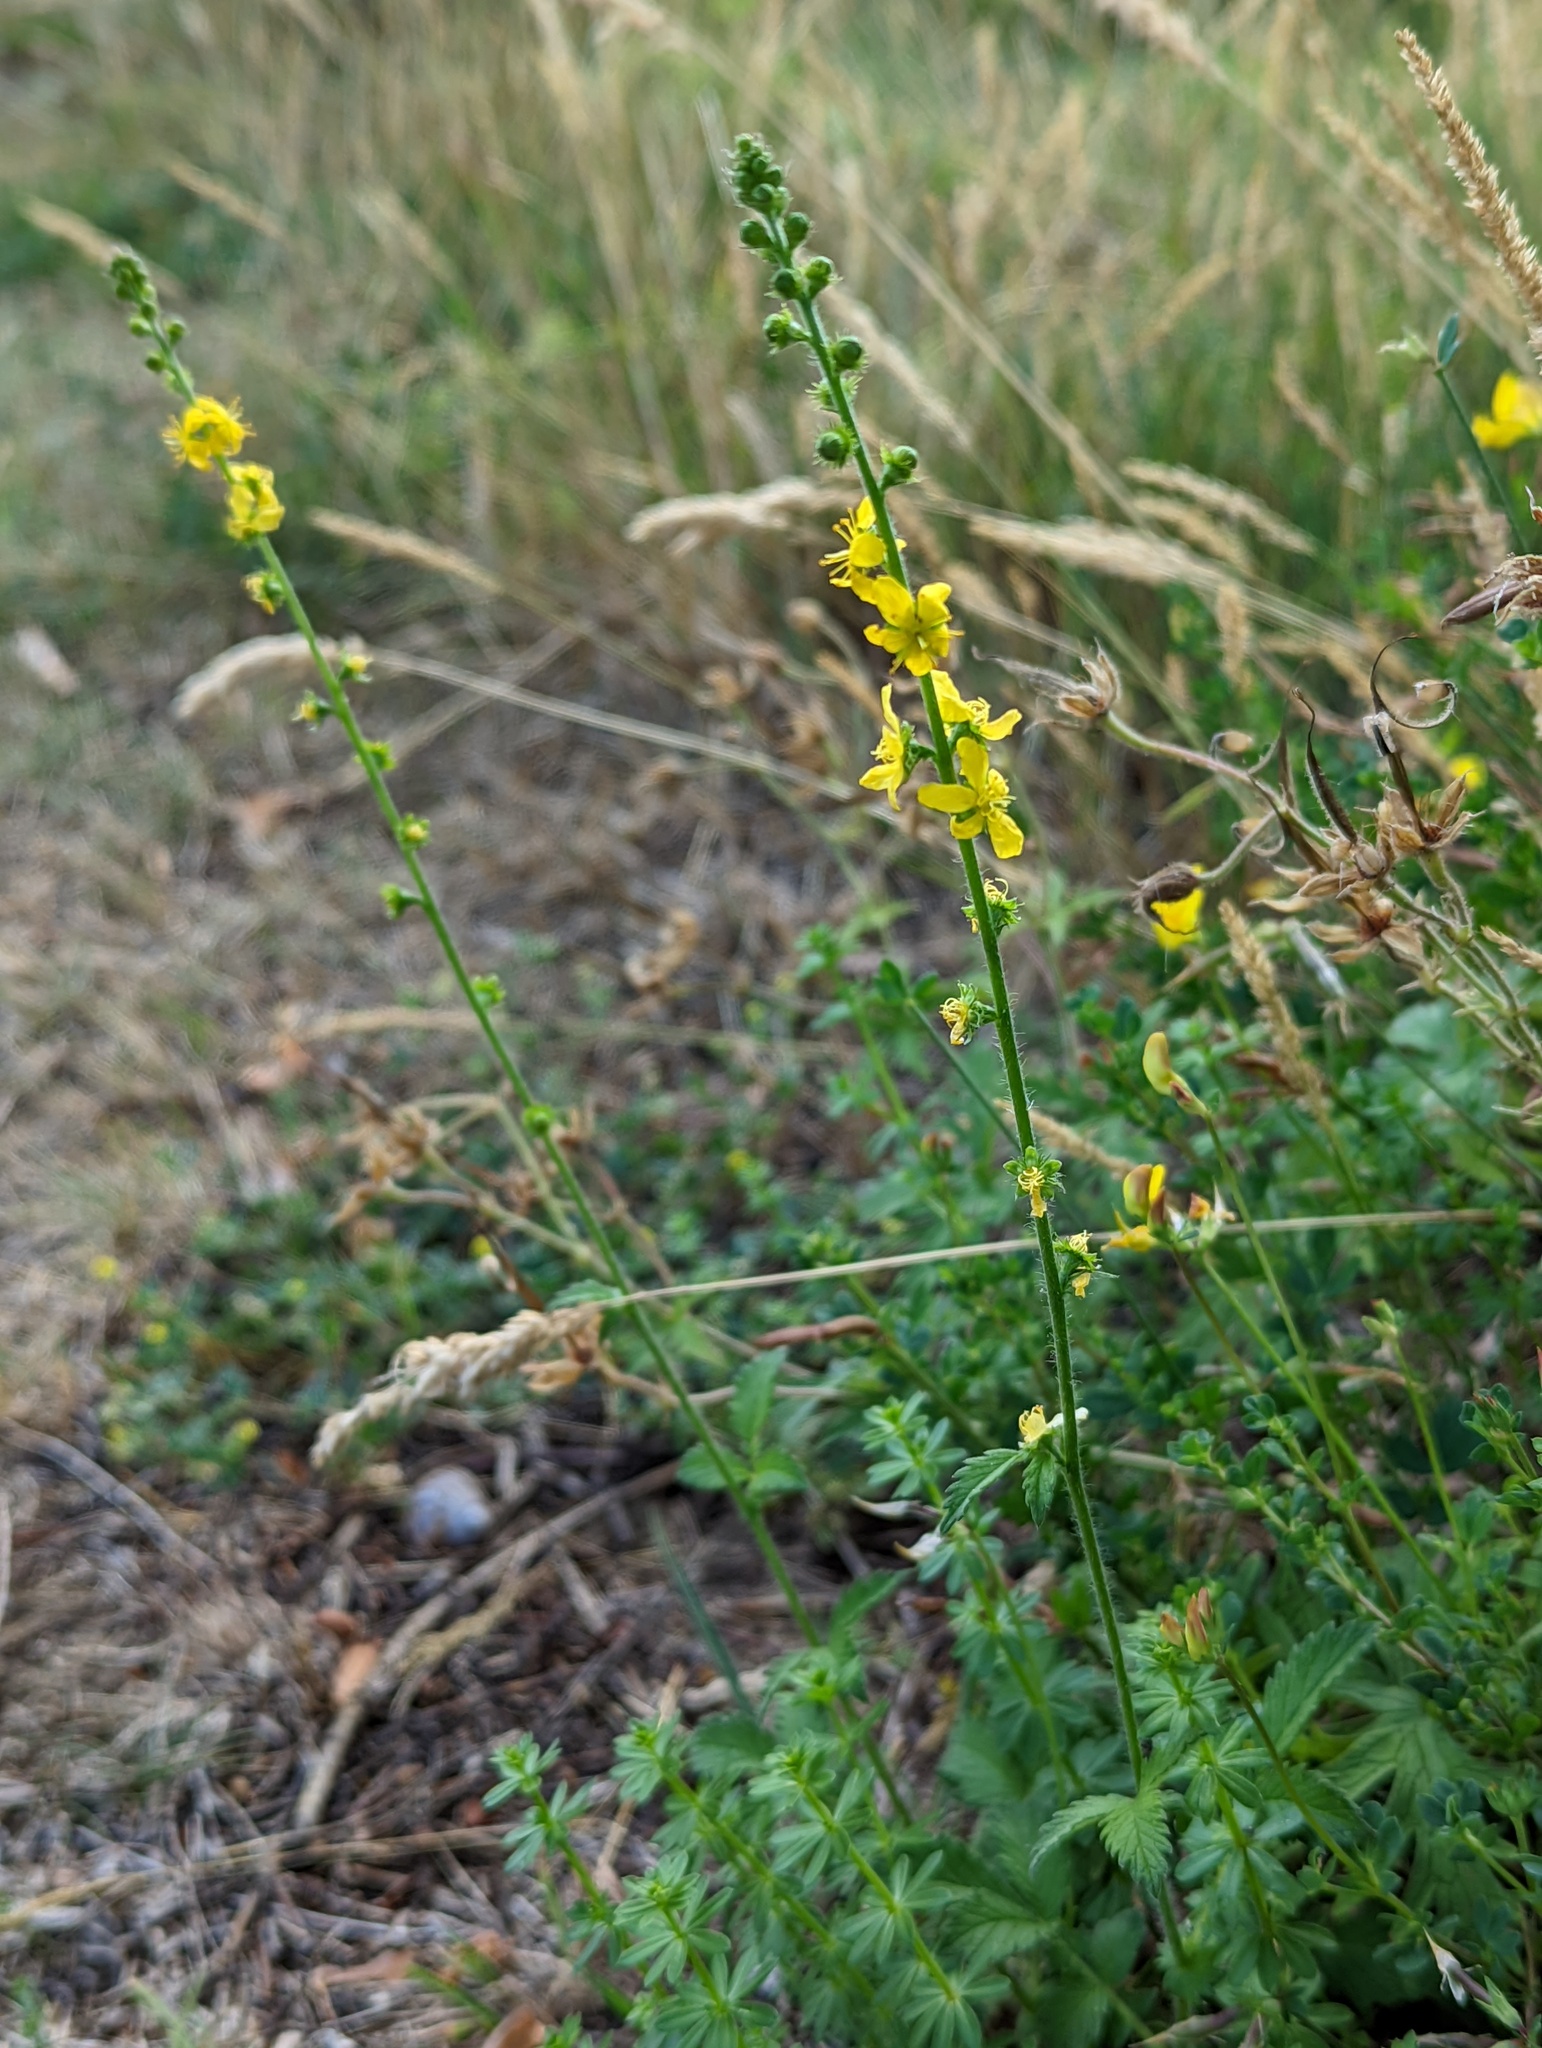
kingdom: Plantae
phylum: Tracheophyta
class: Magnoliopsida
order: Rosales
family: Rosaceae
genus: Agrimonia
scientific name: Agrimonia eupatoria
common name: Agrimony
